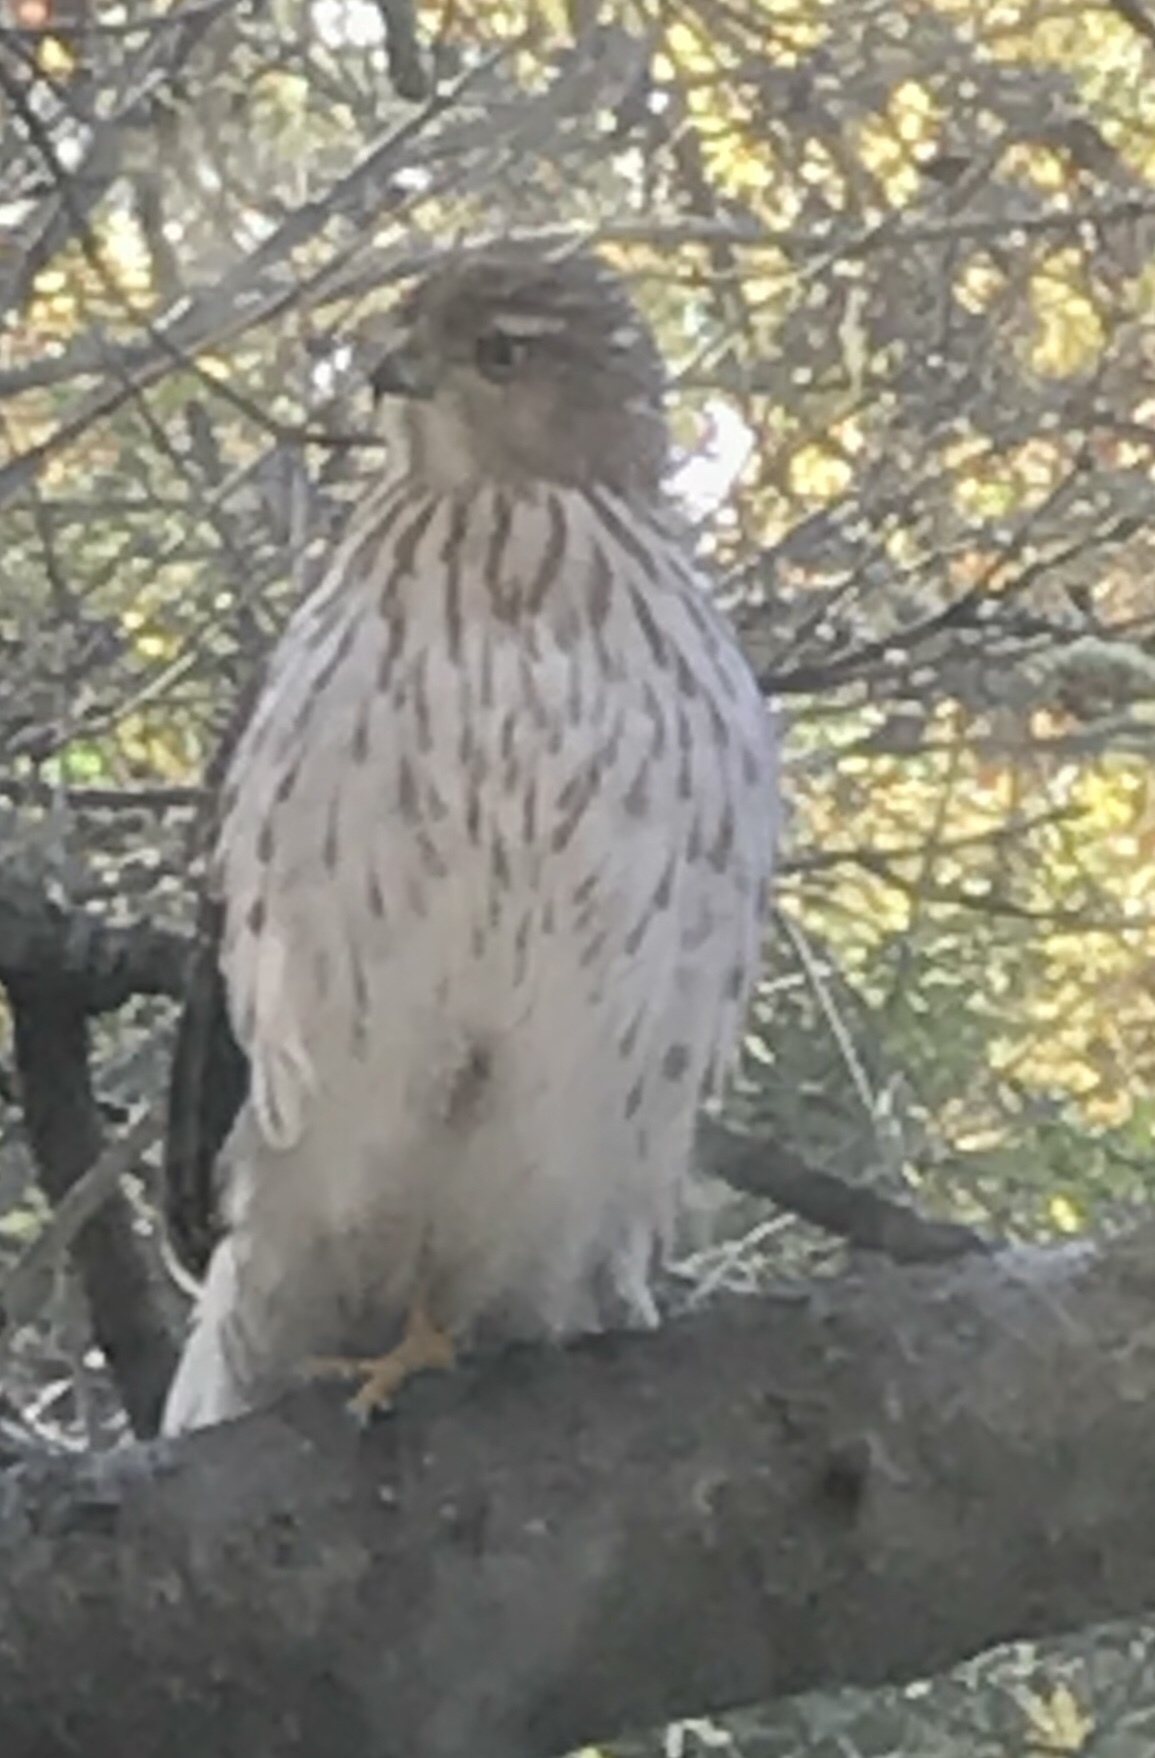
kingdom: Animalia
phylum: Chordata
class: Aves
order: Accipitriformes
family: Accipitridae
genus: Accipiter
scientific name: Accipiter cooperii
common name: Cooper's hawk
